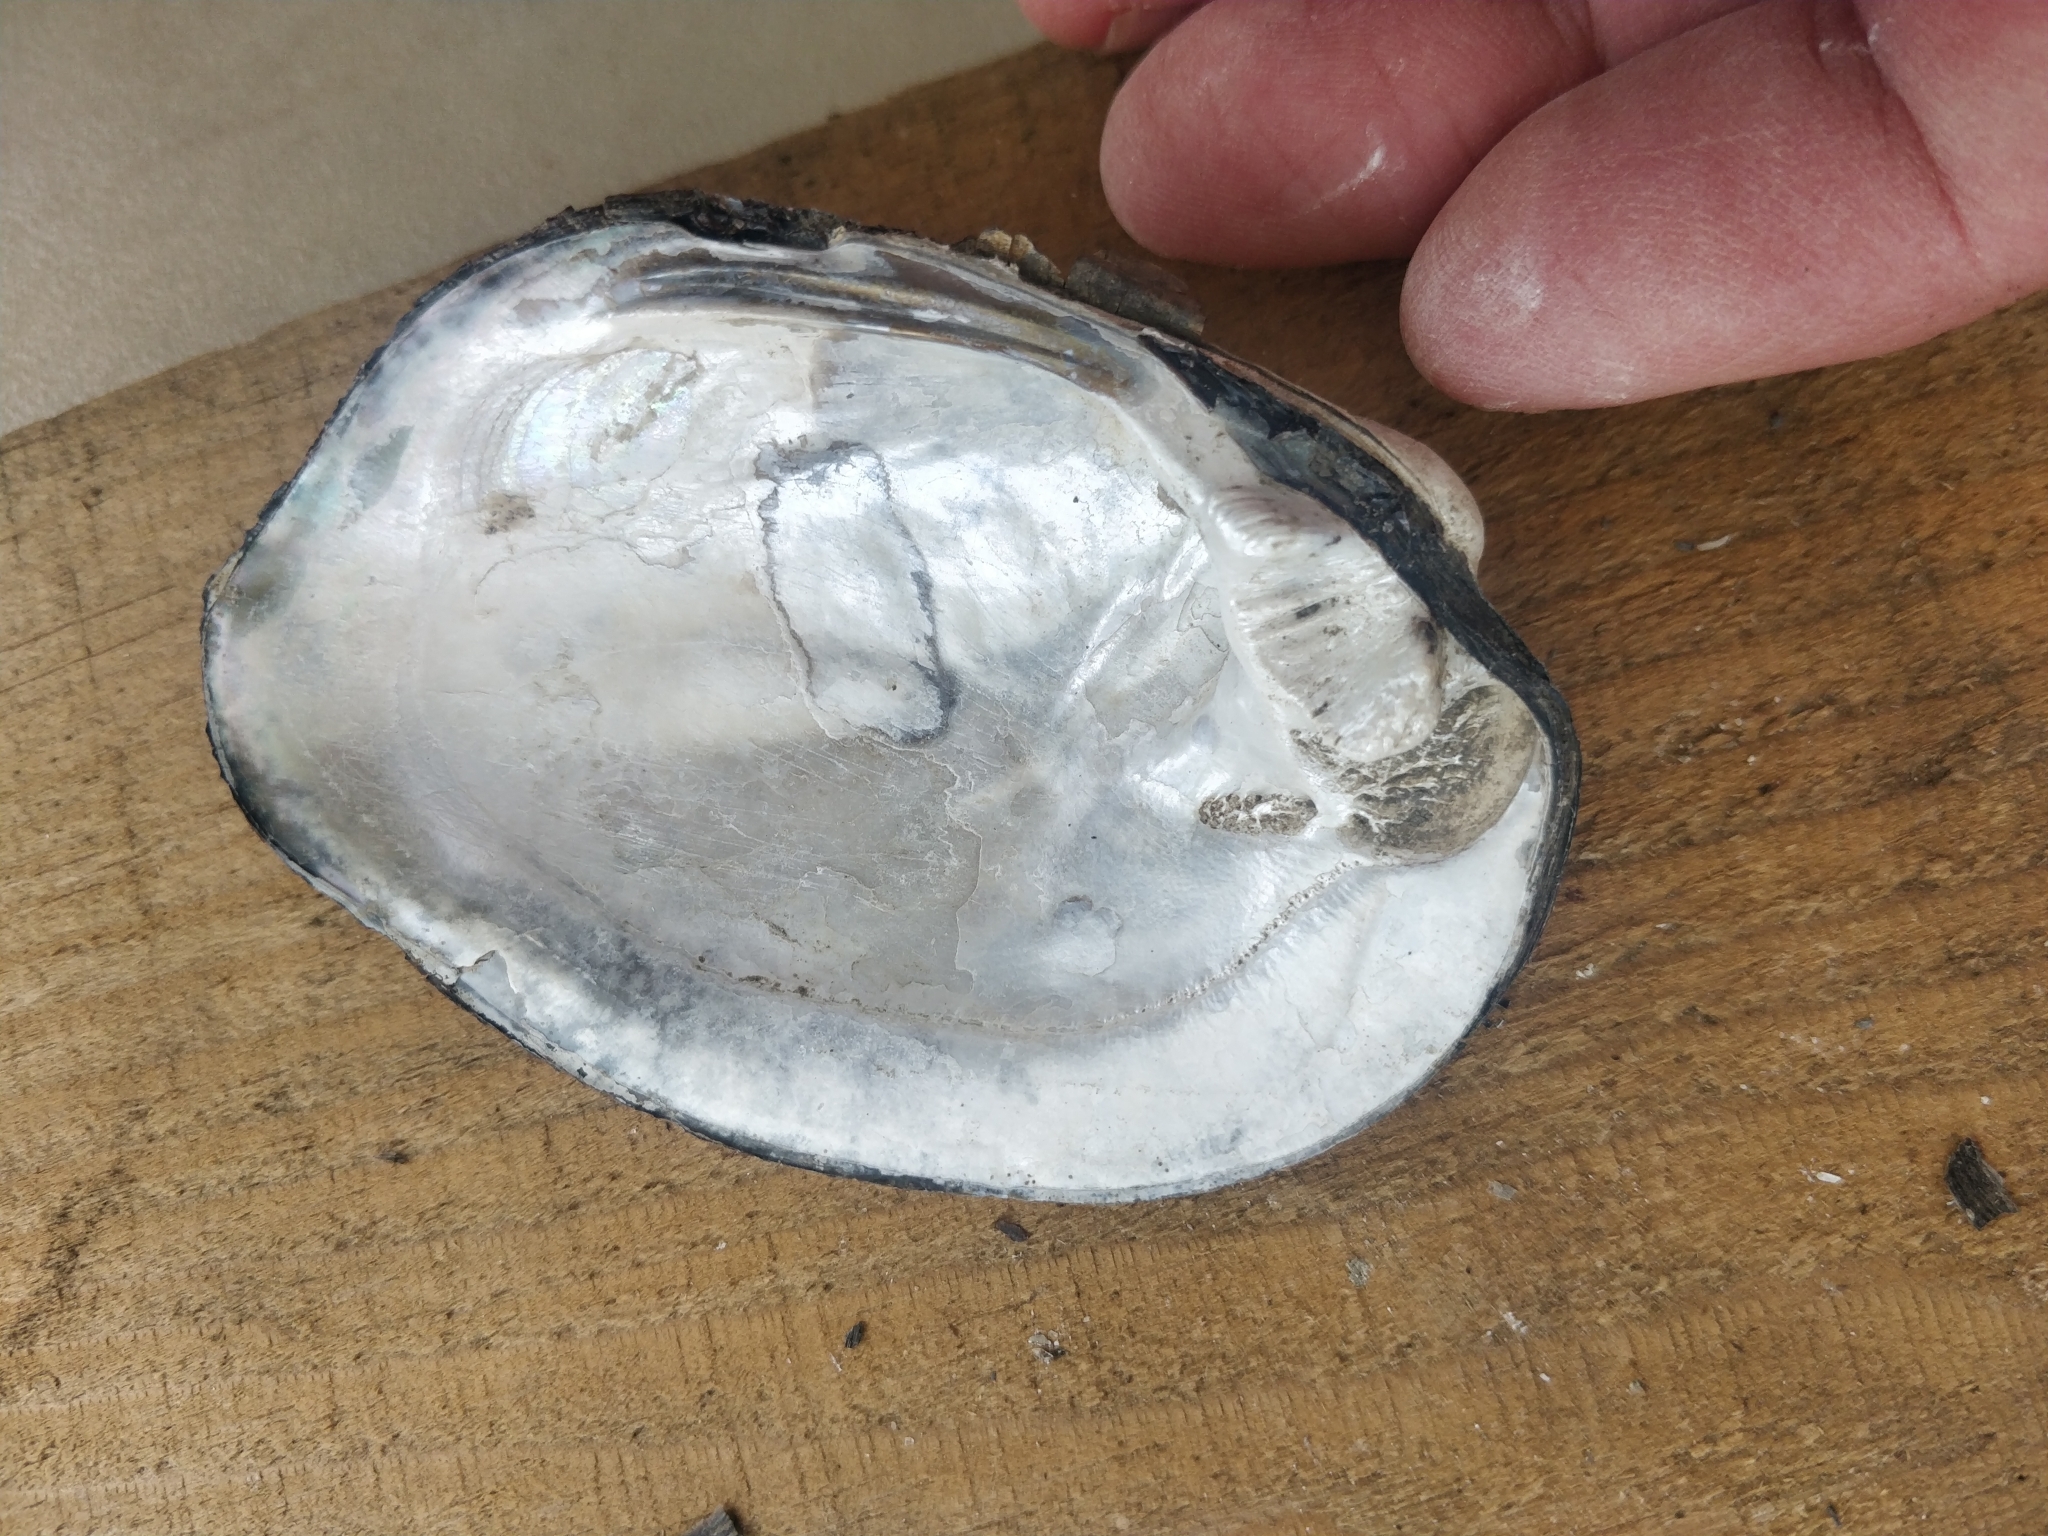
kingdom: Animalia
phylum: Mollusca
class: Bivalvia
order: Unionida
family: Unionidae
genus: Amblema
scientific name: Amblema plicata
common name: Threeridge
